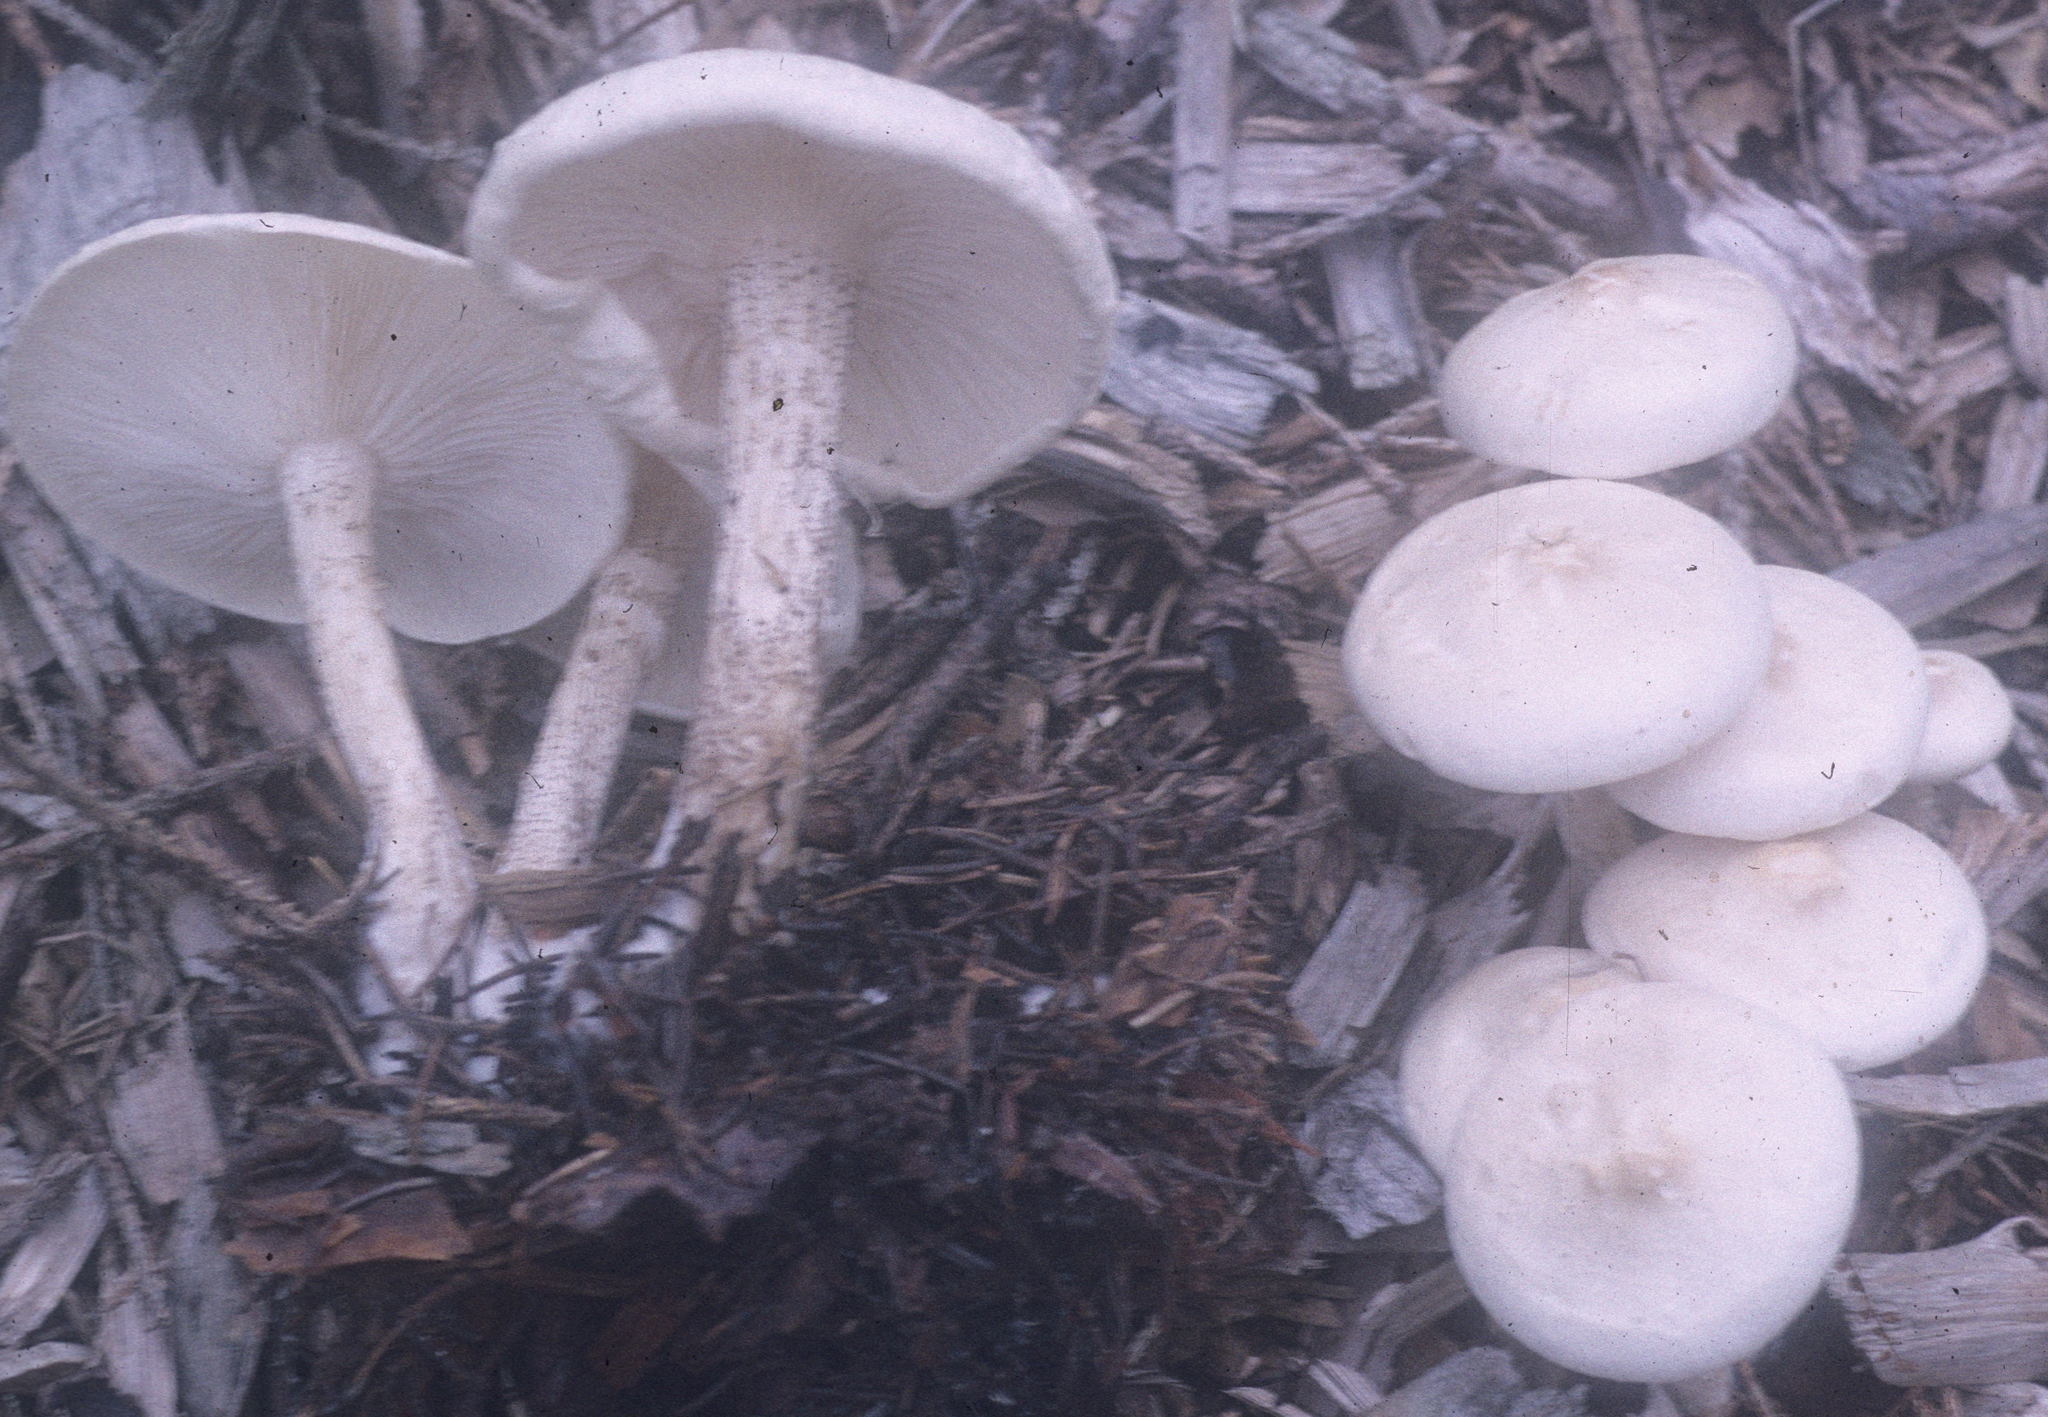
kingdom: Fungi
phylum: Basidiomycota
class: Agaricomycetes
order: Agaricales
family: Tricholomataceae
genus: Melanoleuca
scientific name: Melanoleuca verrucipes
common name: Warty cavalier
